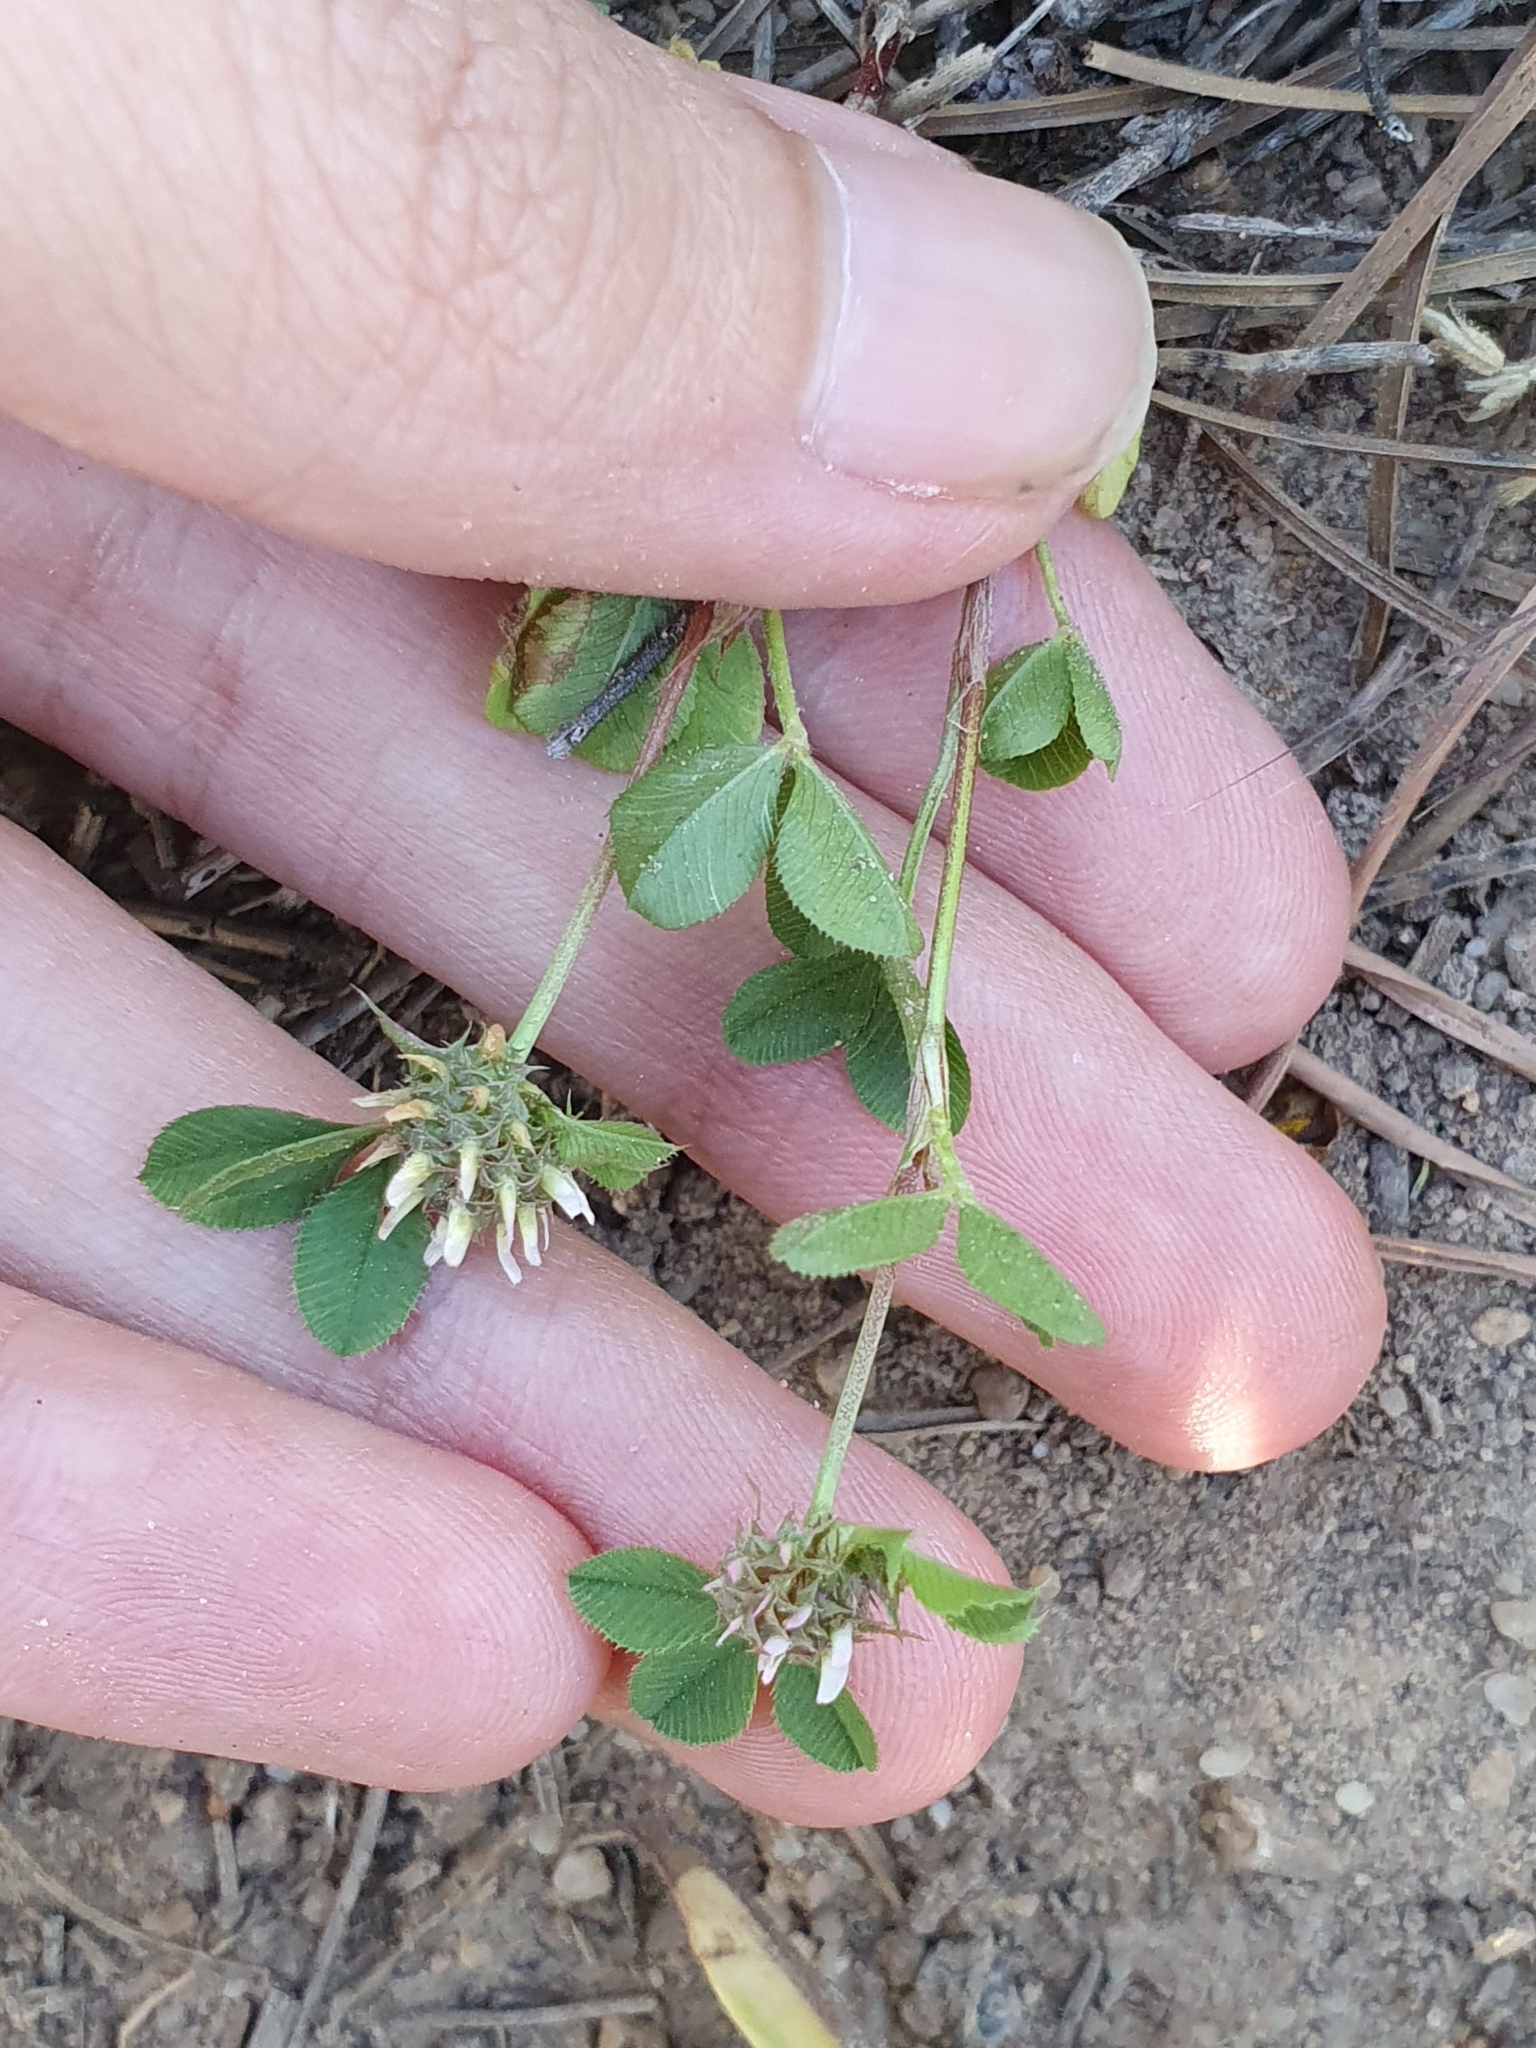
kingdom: Plantae
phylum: Tracheophyta
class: Magnoliopsida
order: Fabales
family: Fabaceae
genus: Trifolium
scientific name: Trifolium glomeratum
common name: Clustered clover
